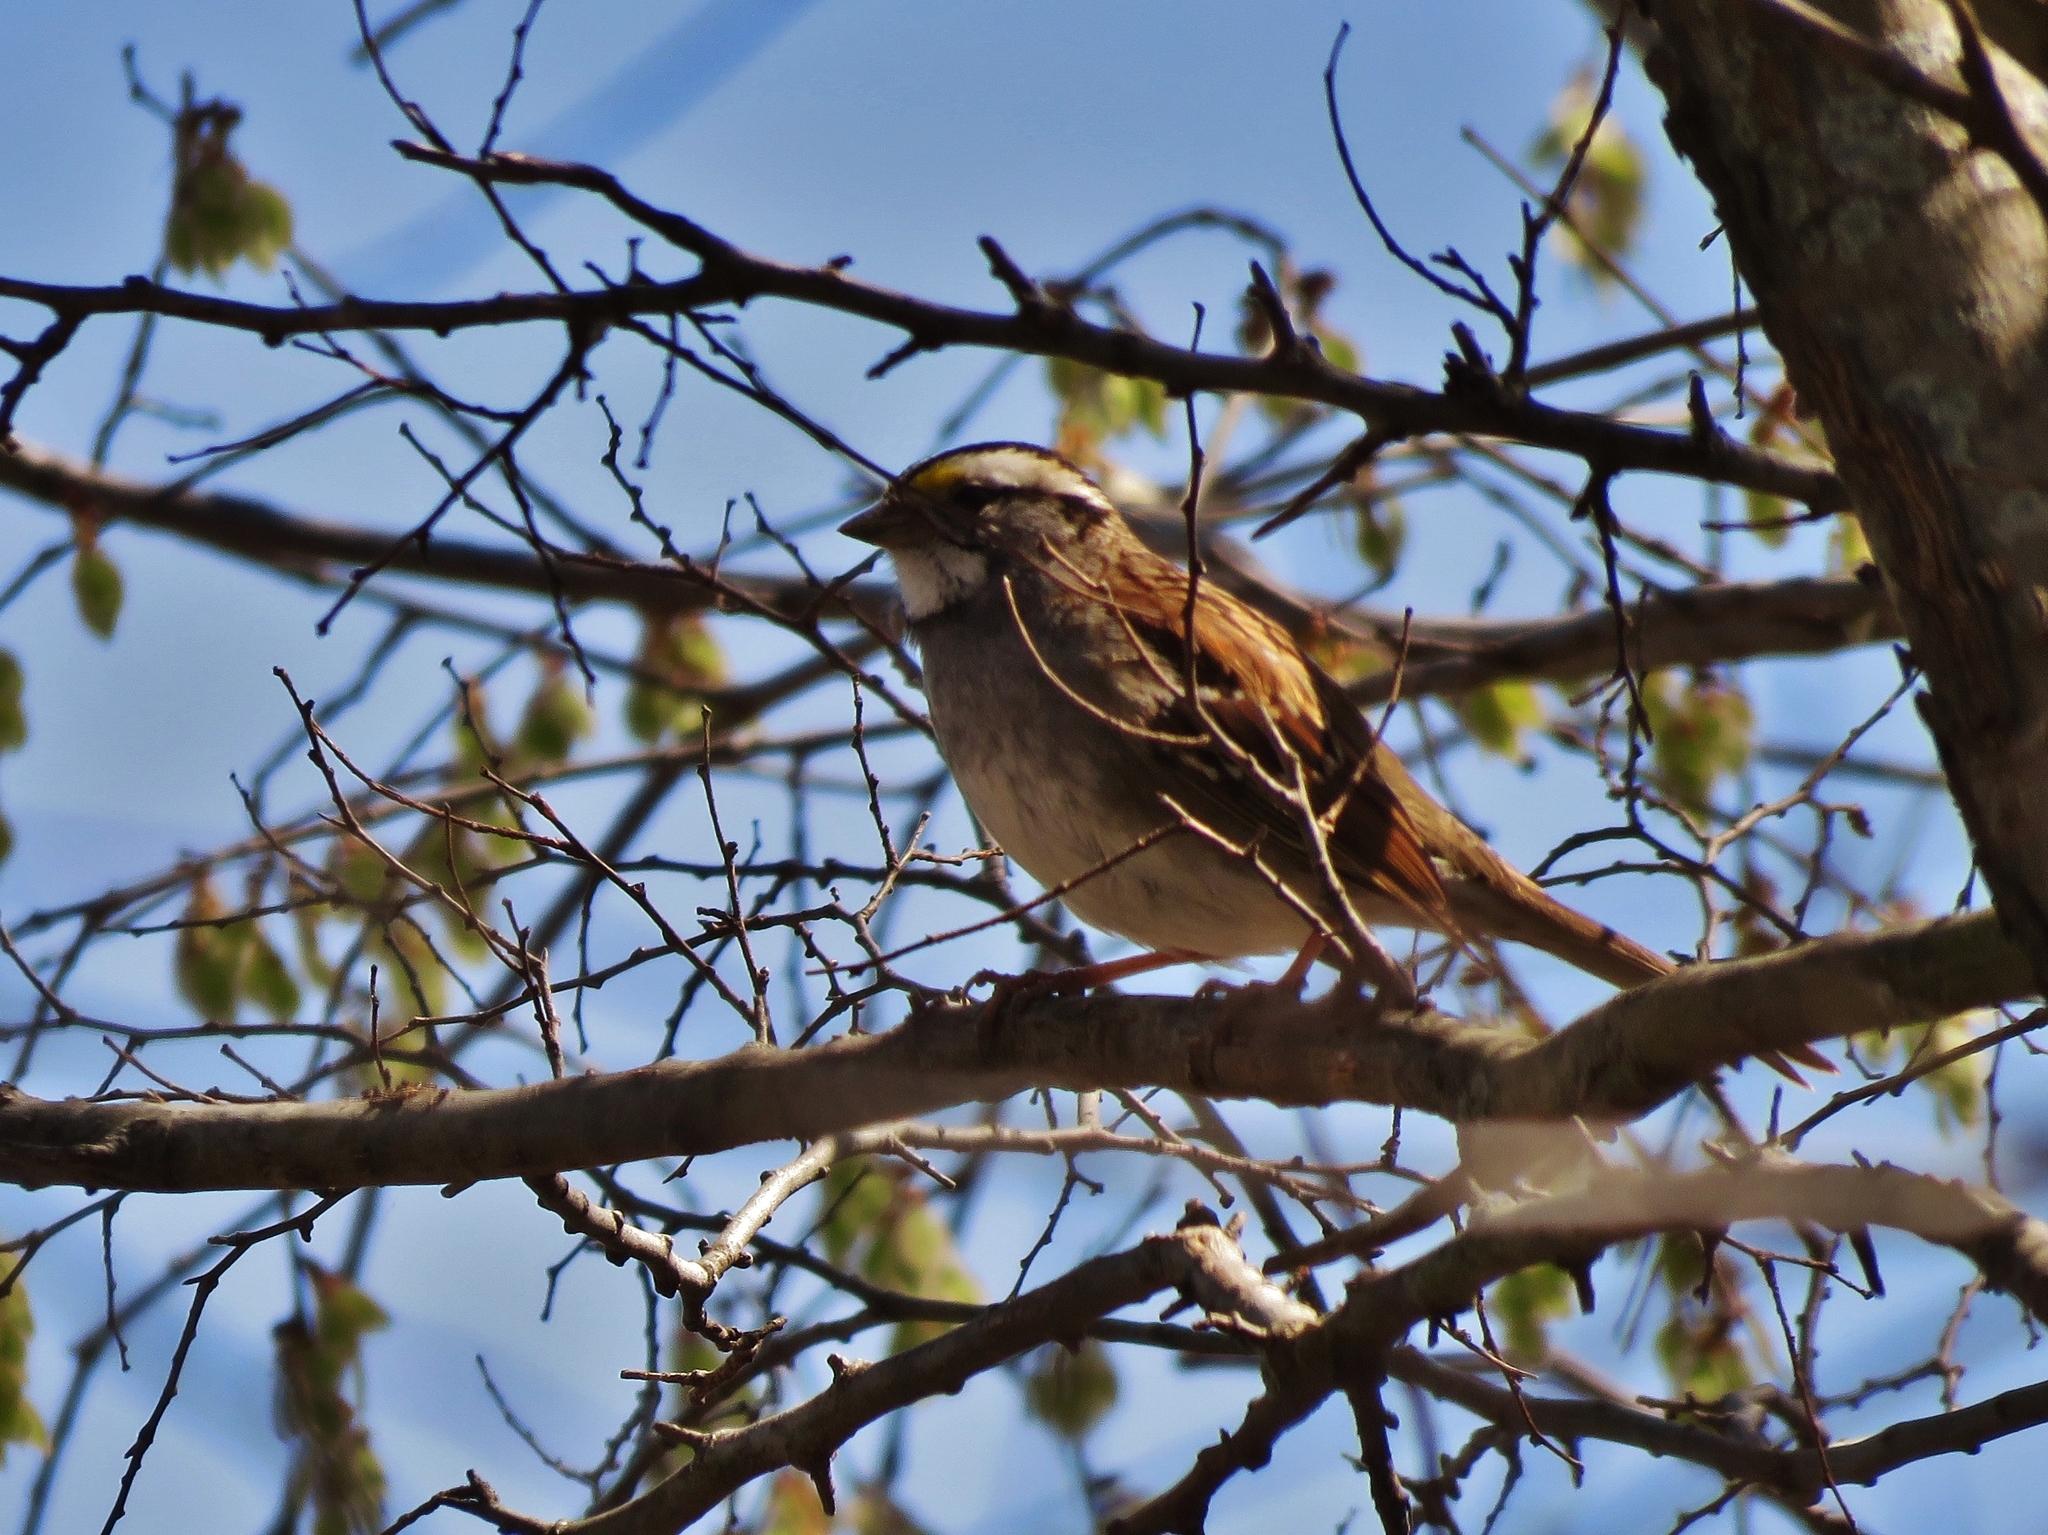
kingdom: Animalia
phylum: Chordata
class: Aves
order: Passeriformes
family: Passerellidae
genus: Zonotrichia
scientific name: Zonotrichia albicollis
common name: White-throated sparrow
